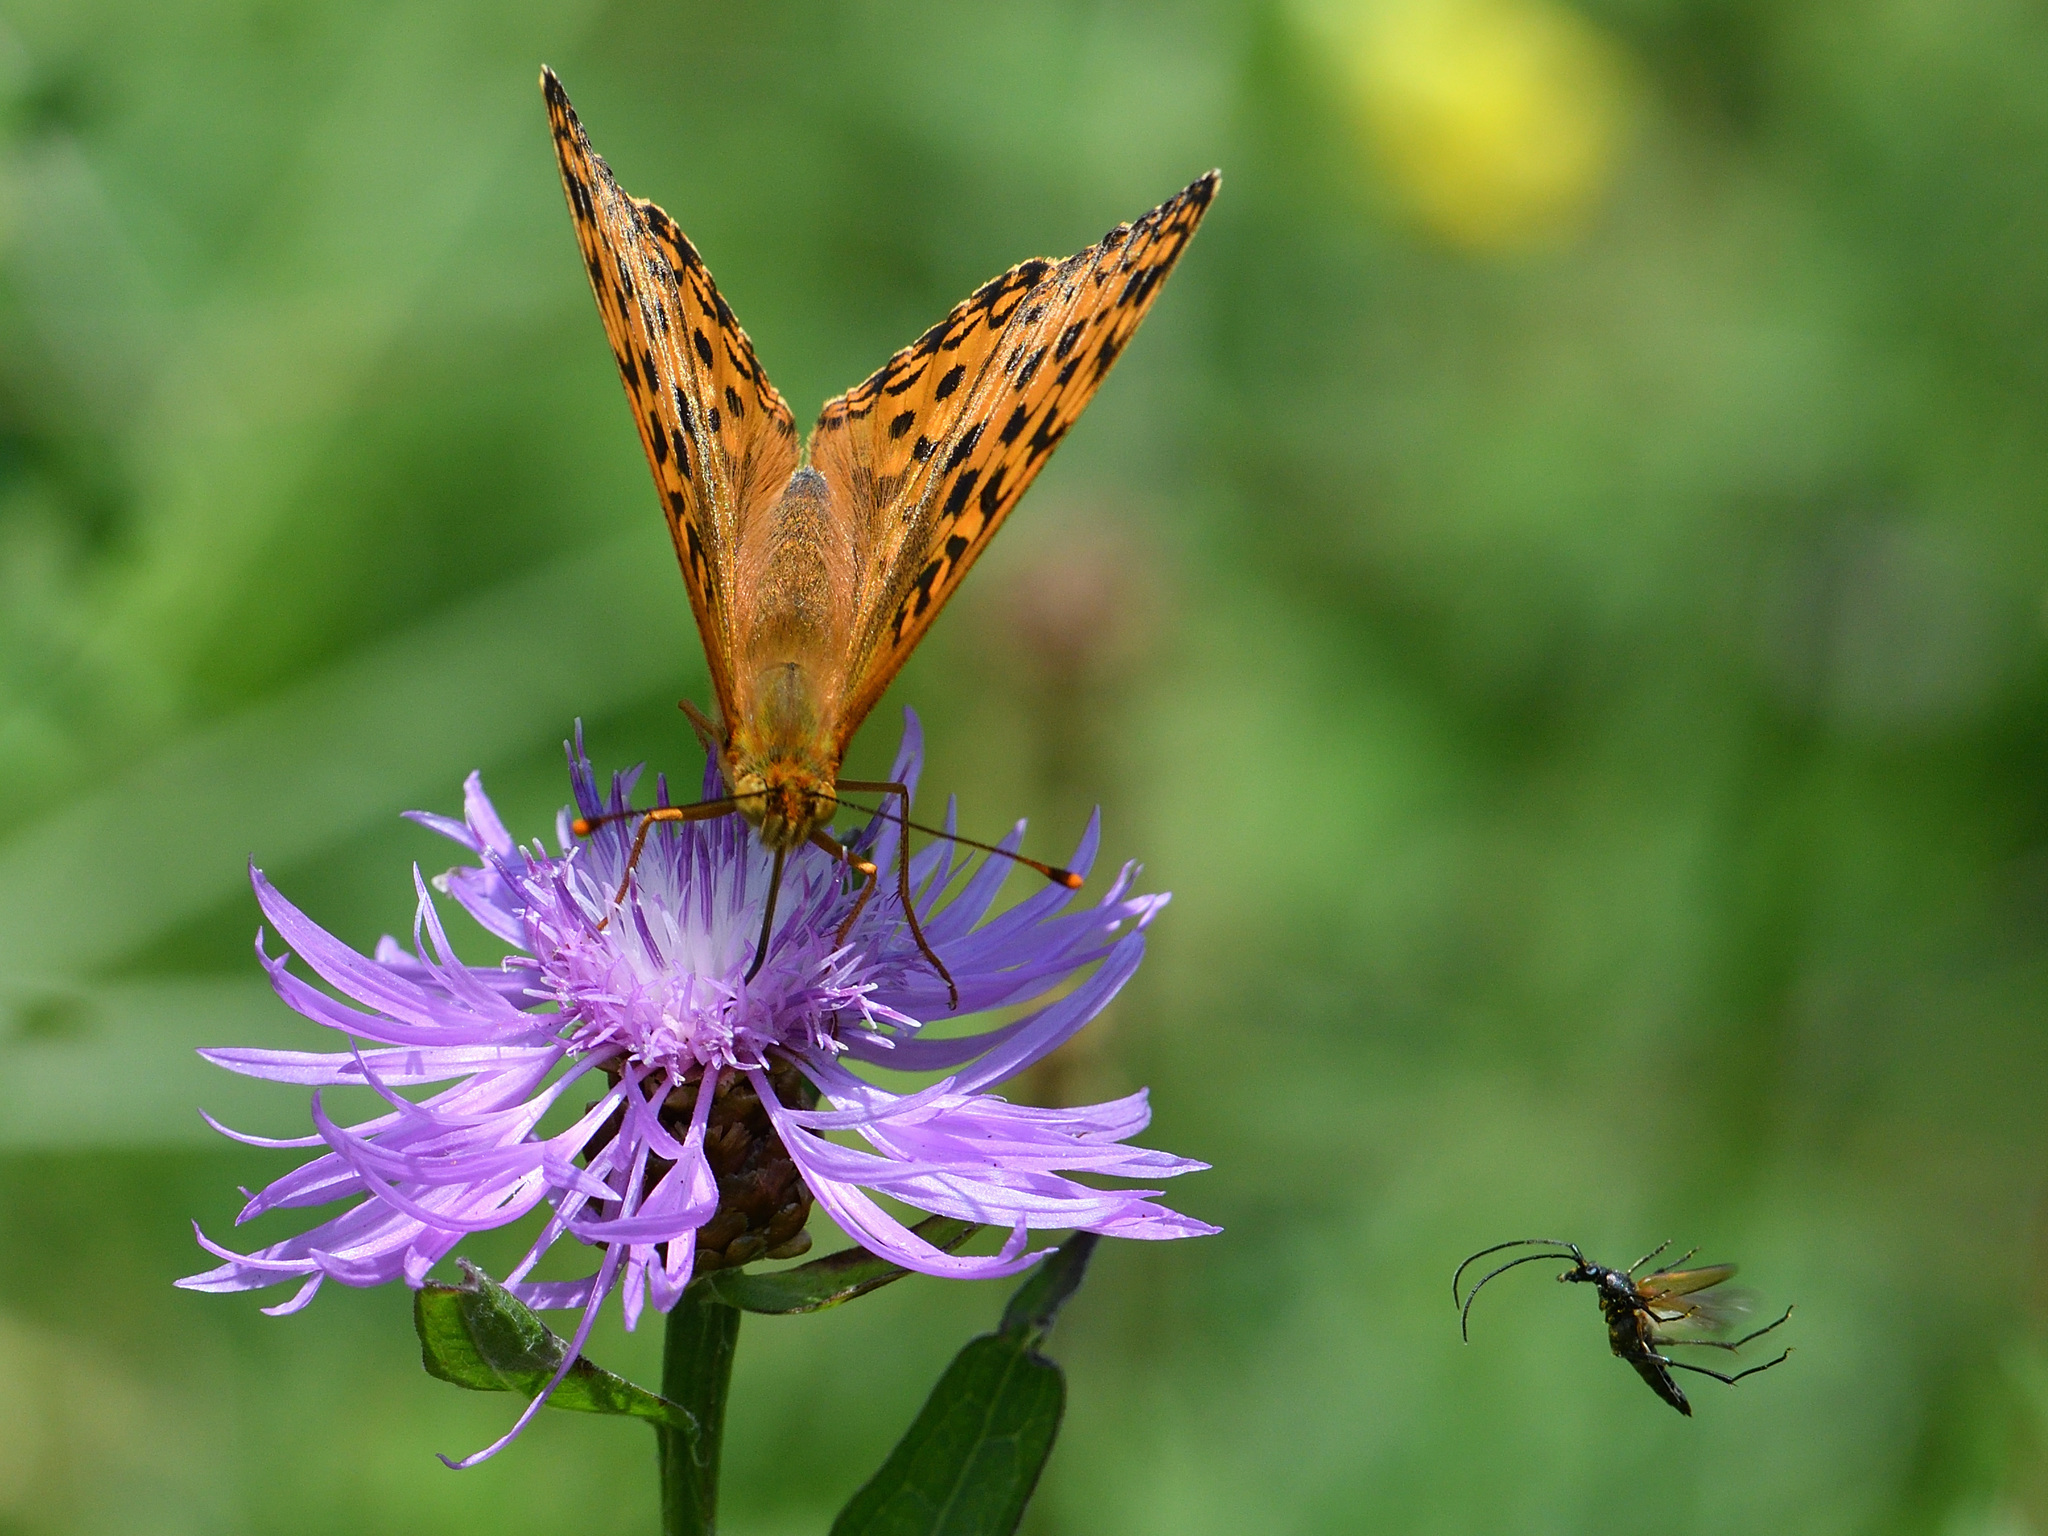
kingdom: Animalia
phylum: Arthropoda
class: Insecta
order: Lepidoptera
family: Nymphalidae
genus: Fabriciana
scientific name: Fabriciana adippe
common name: High brown fritillary
